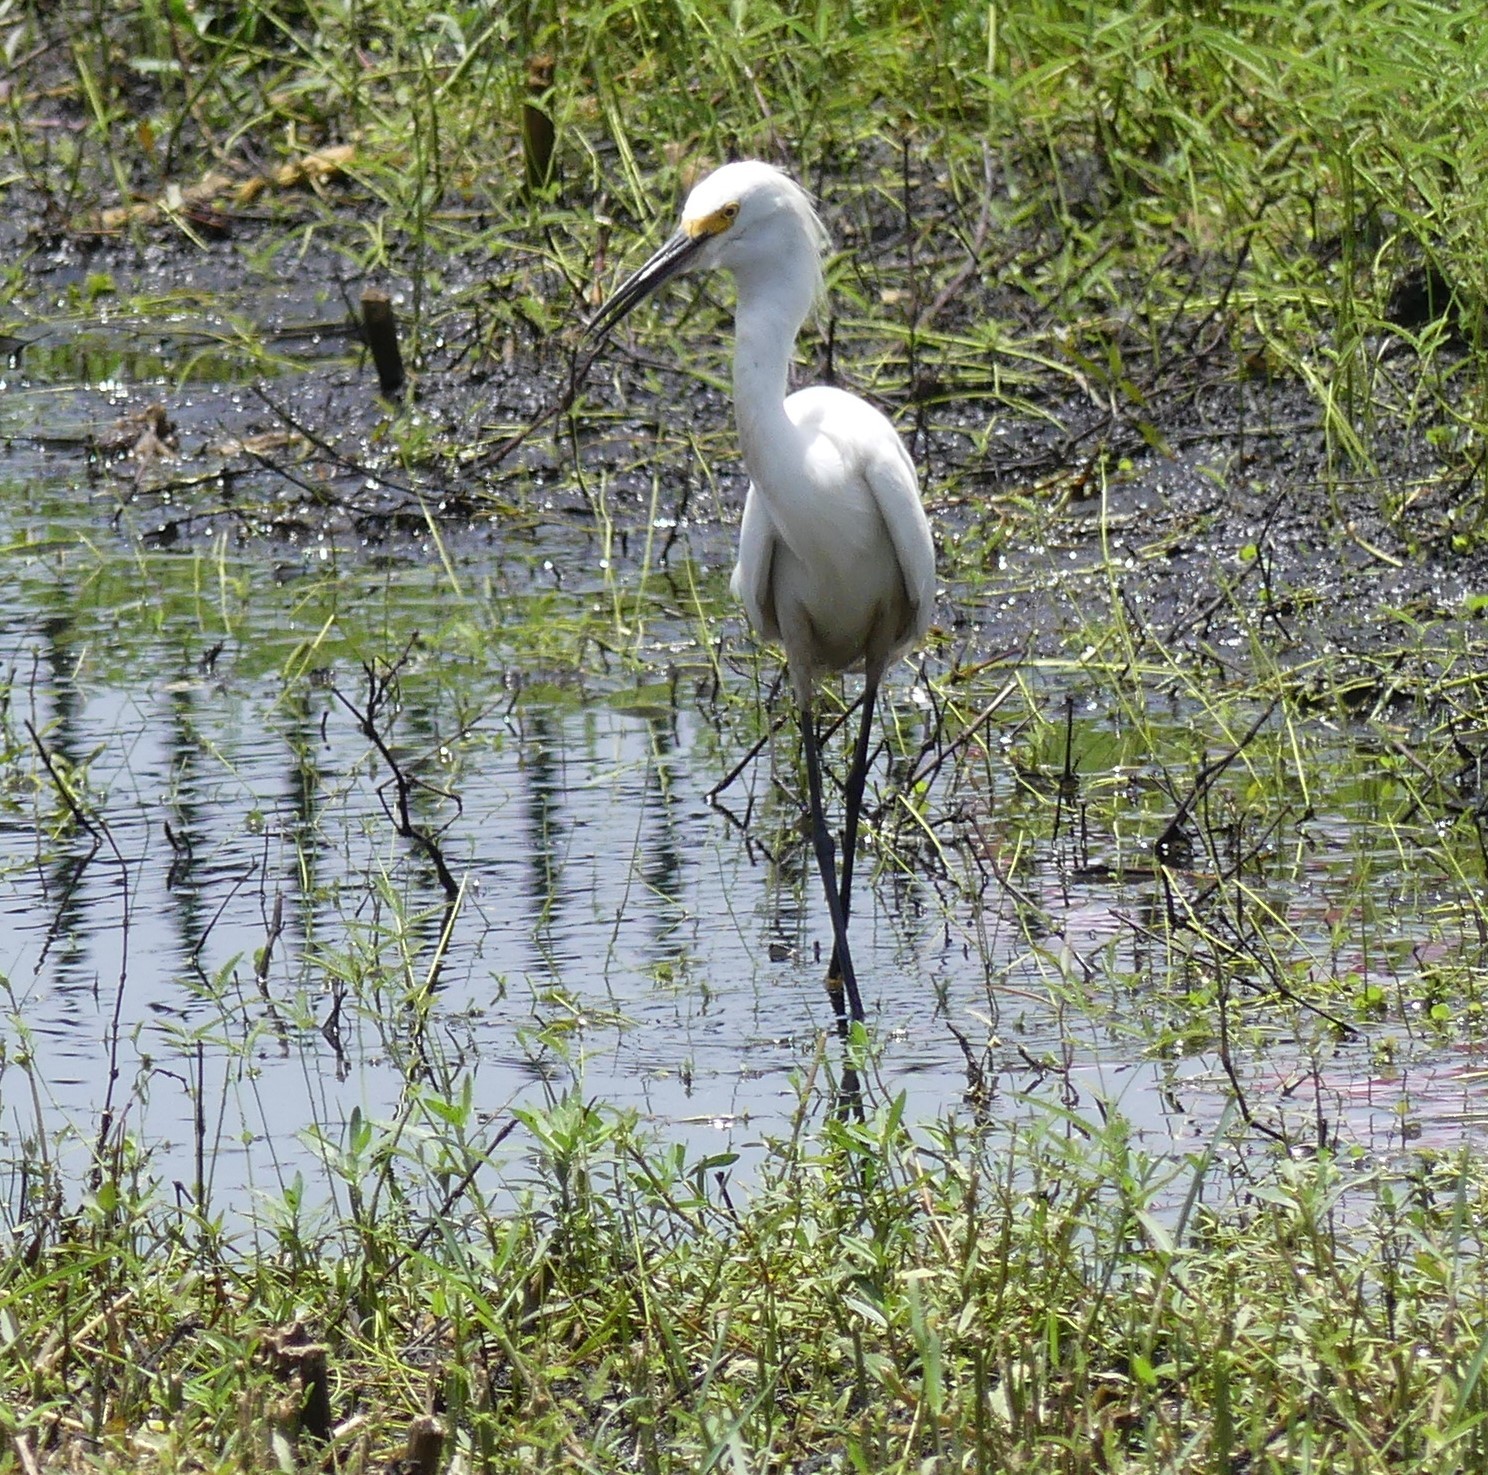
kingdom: Animalia
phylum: Chordata
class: Aves
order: Pelecaniformes
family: Ardeidae
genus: Egretta
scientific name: Egretta thula
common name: Snowy egret
